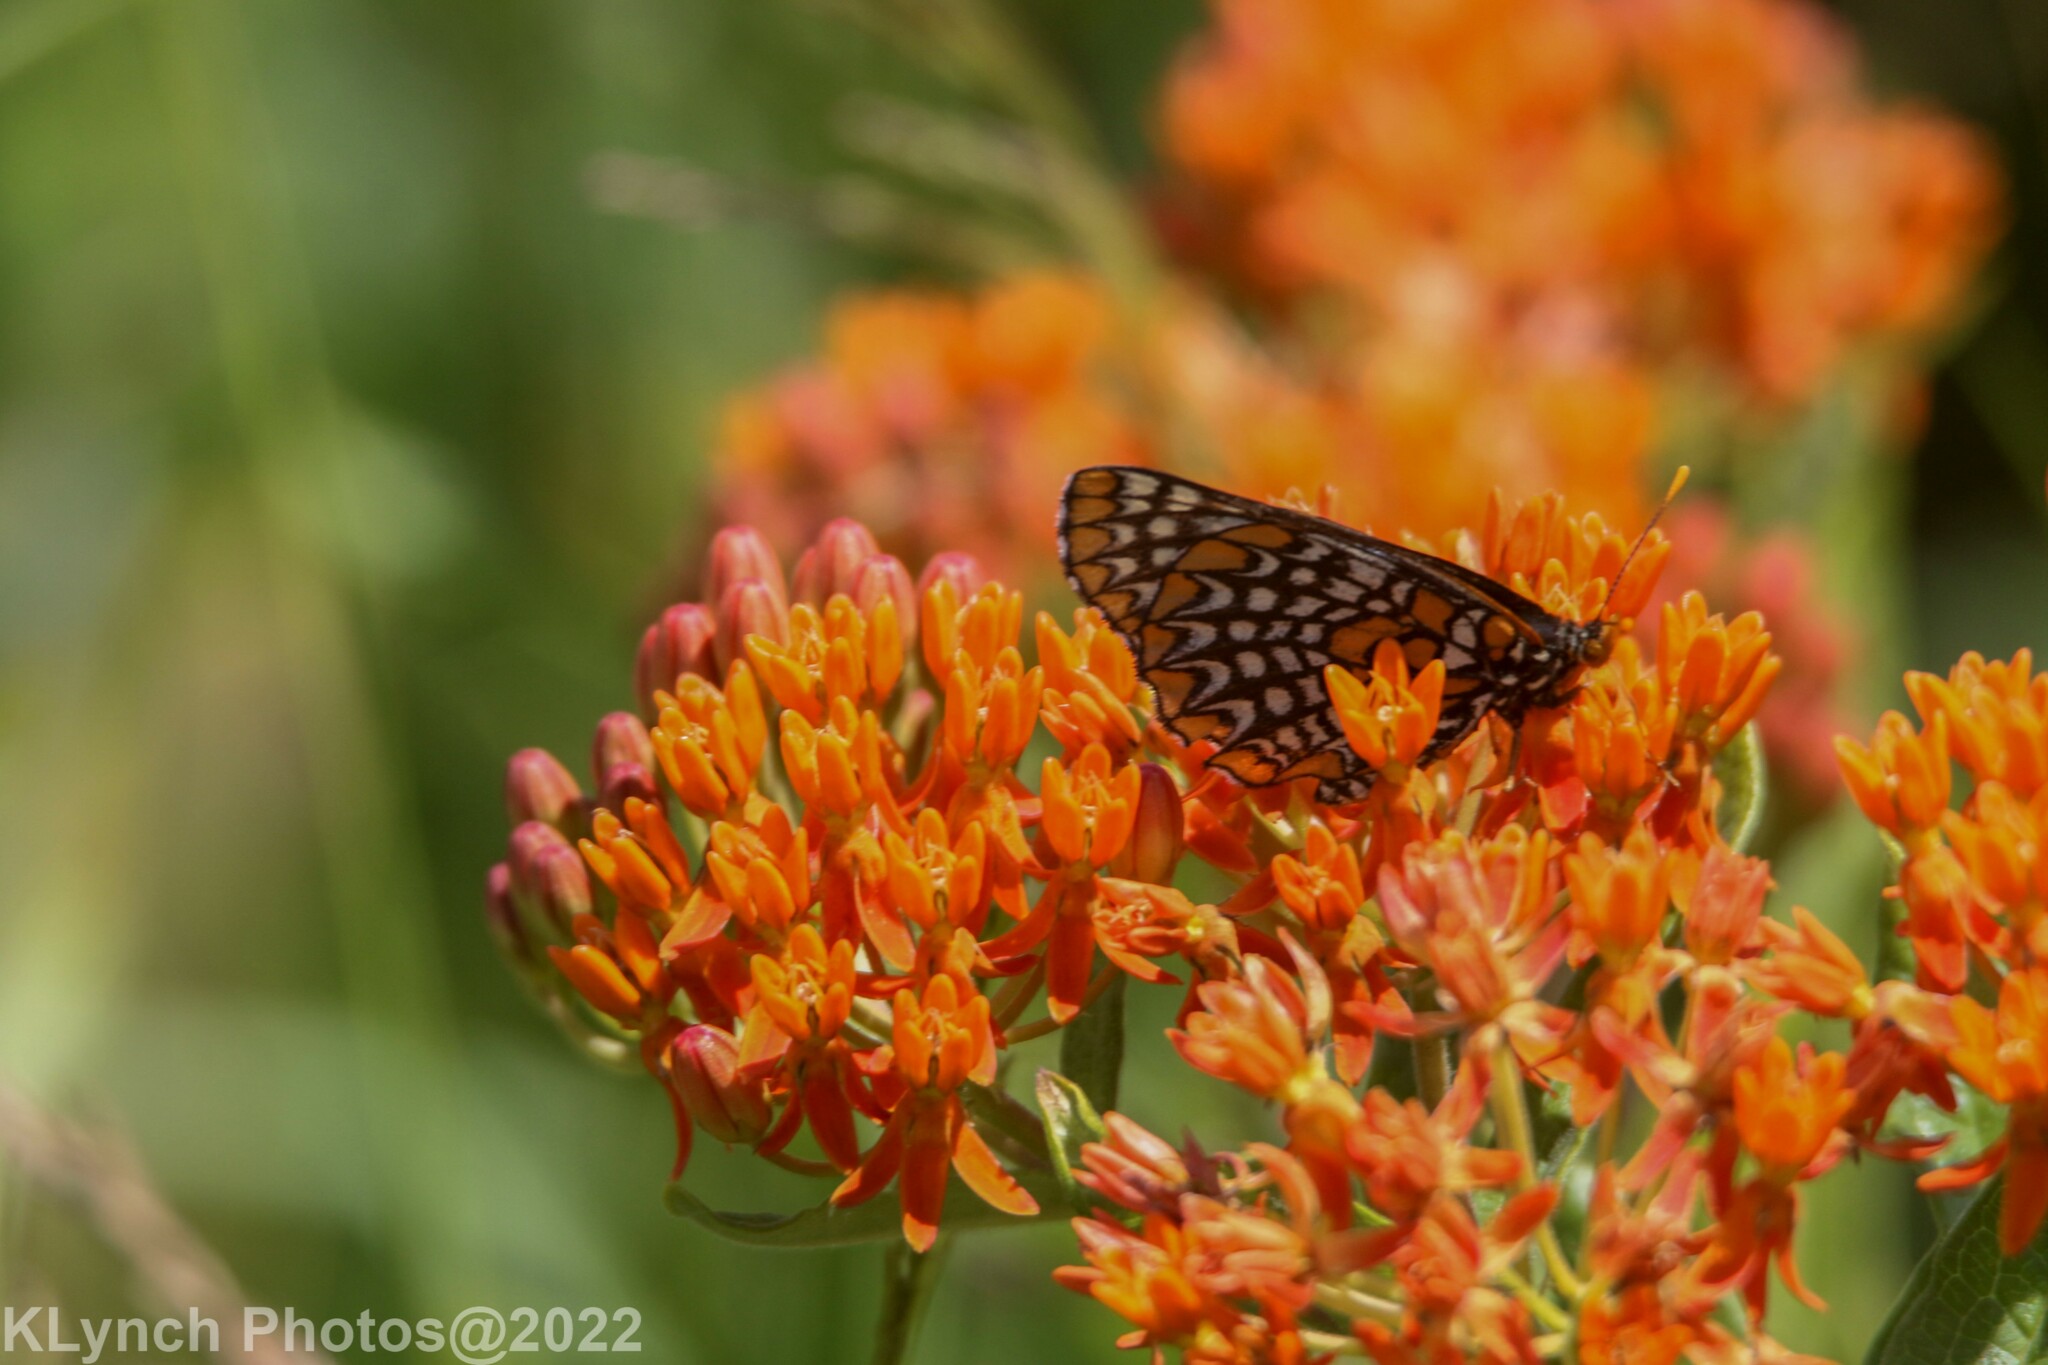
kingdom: Animalia
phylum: Arthropoda
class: Insecta
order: Lepidoptera
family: Nymphalidae
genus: Euphydryas
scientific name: Euphydryas phaeton
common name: Baltimore checkerspot
